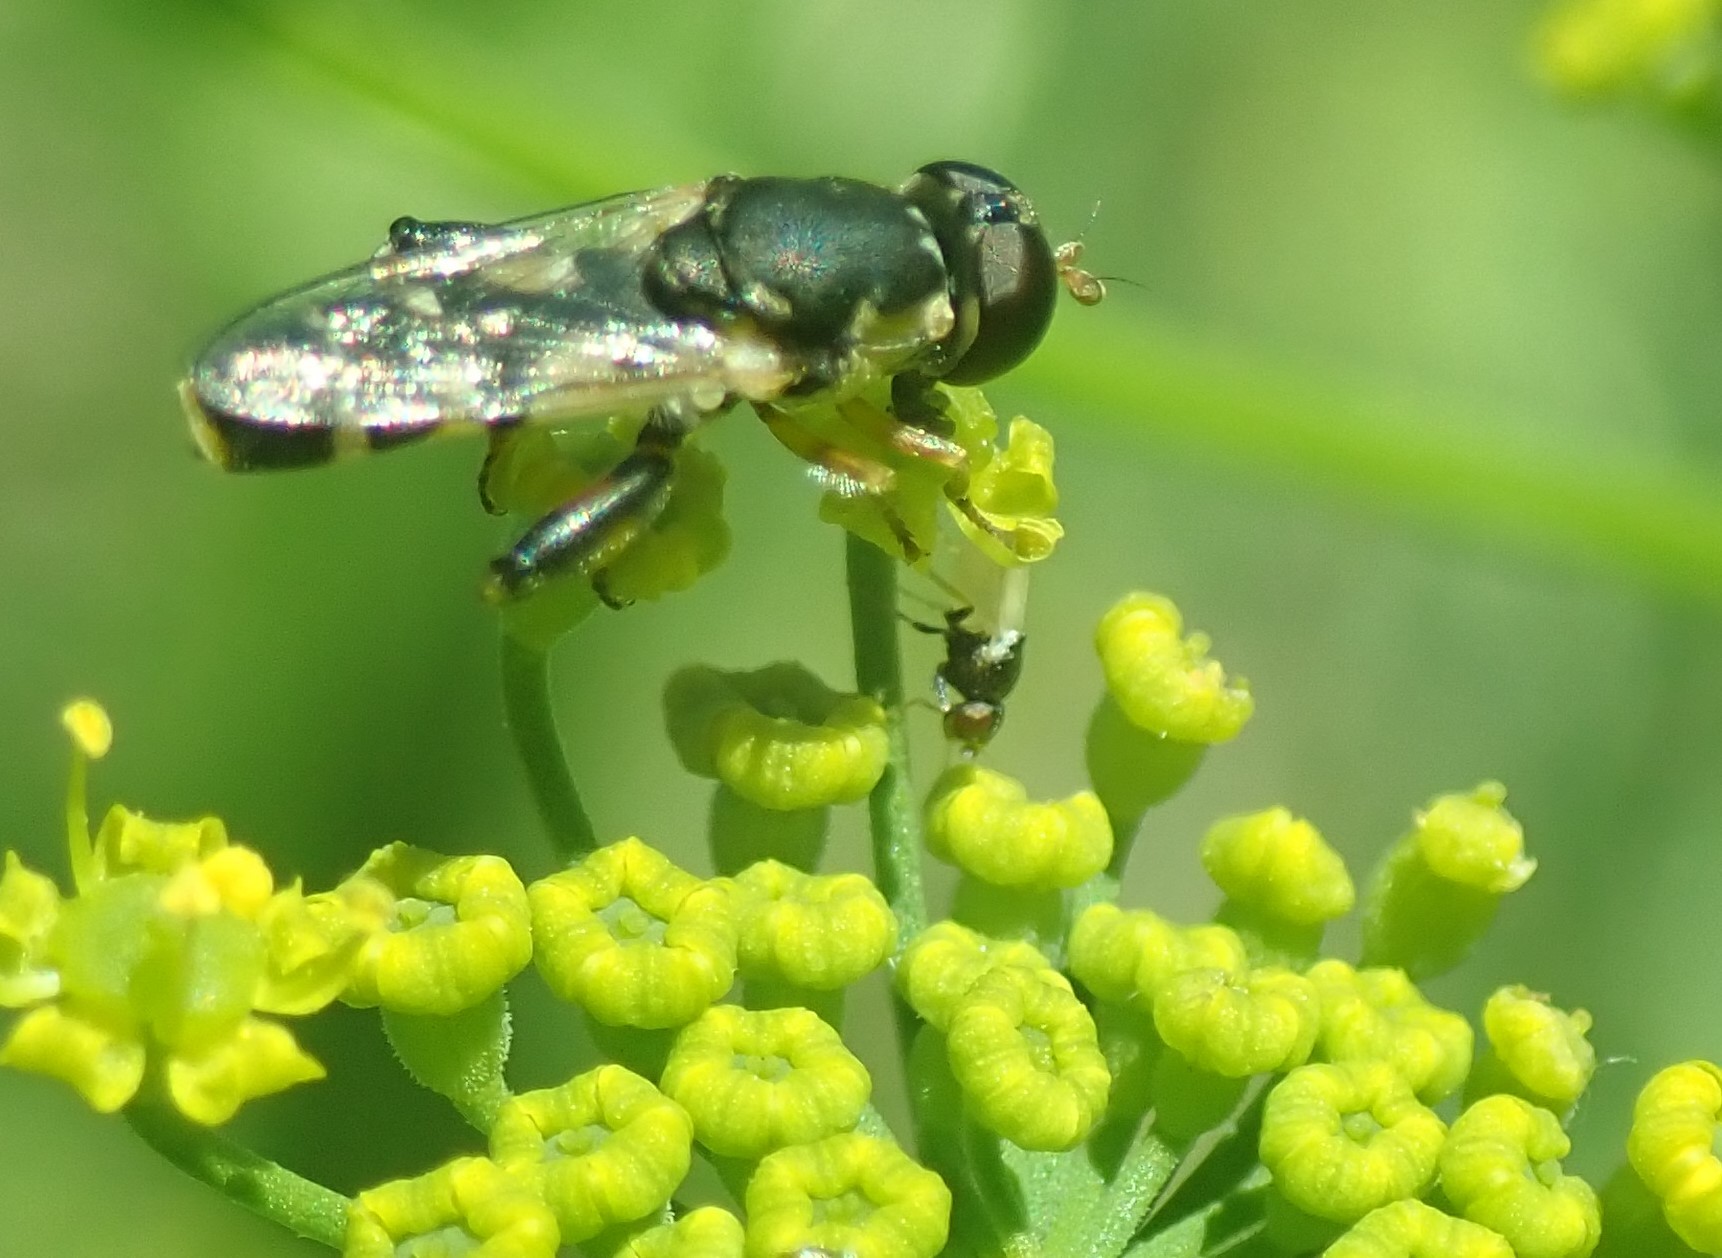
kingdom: Animalia
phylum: Arthropoda
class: Insecta
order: Diptera
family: Syrphidae
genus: Syritta
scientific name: Syritta pipiens
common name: Hover fly
